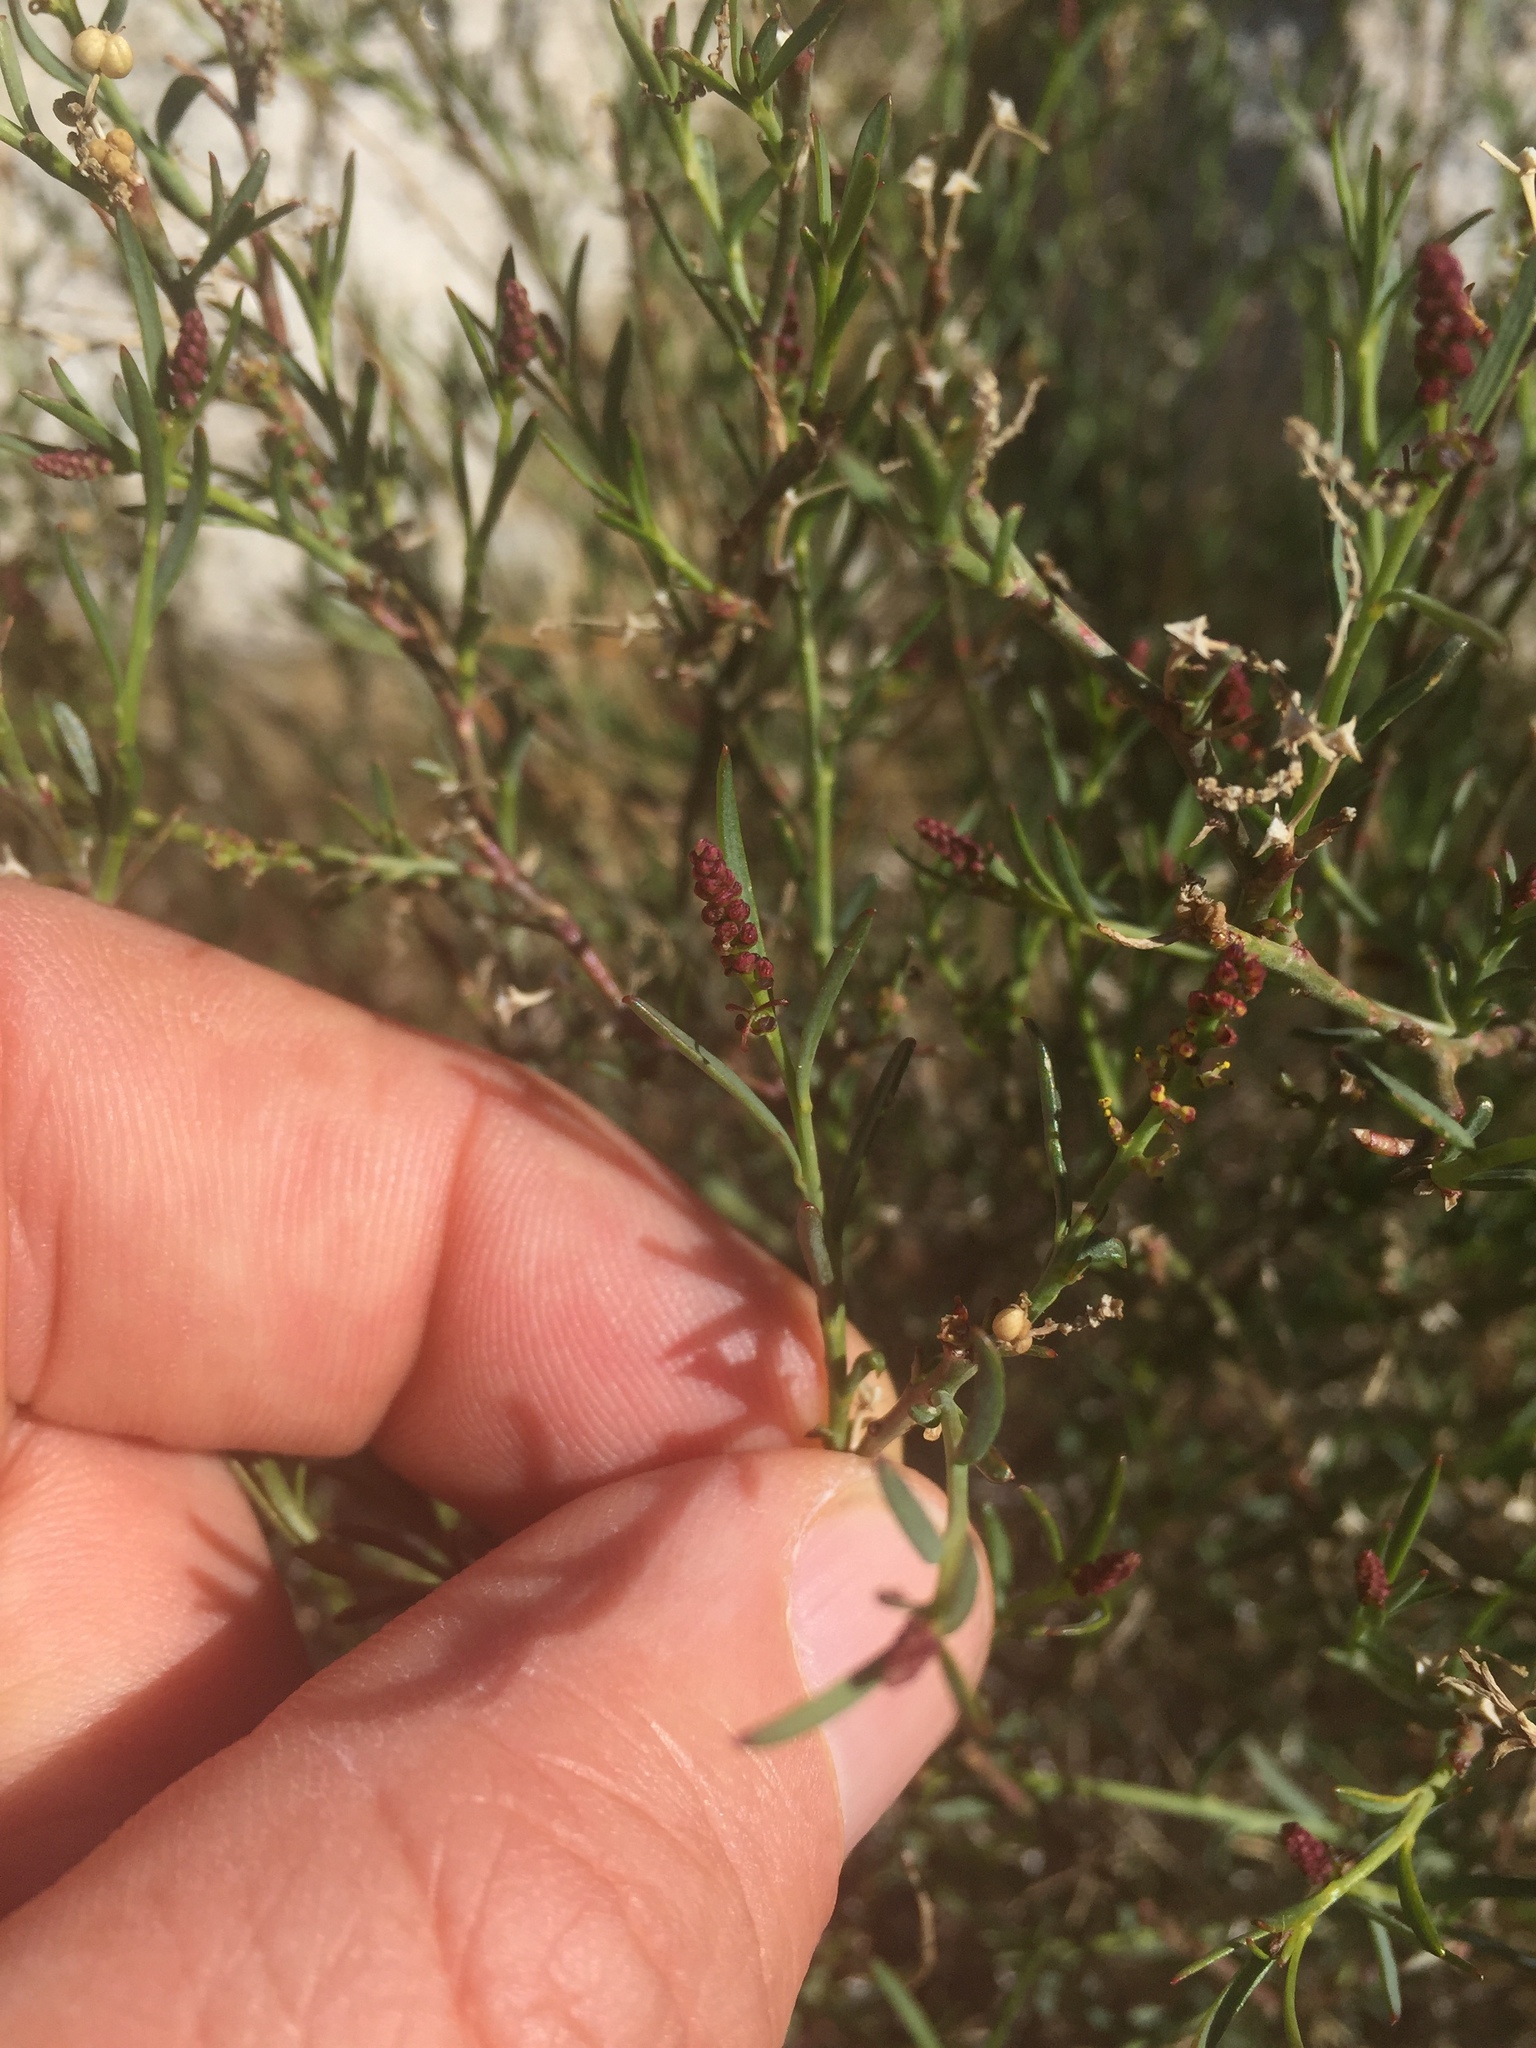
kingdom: Plantae
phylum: Tracheophyta
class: Magnoliopsida
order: Malpighiales
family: Euphorbiaceae
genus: Stillingia
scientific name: Stillingia linearifolia
